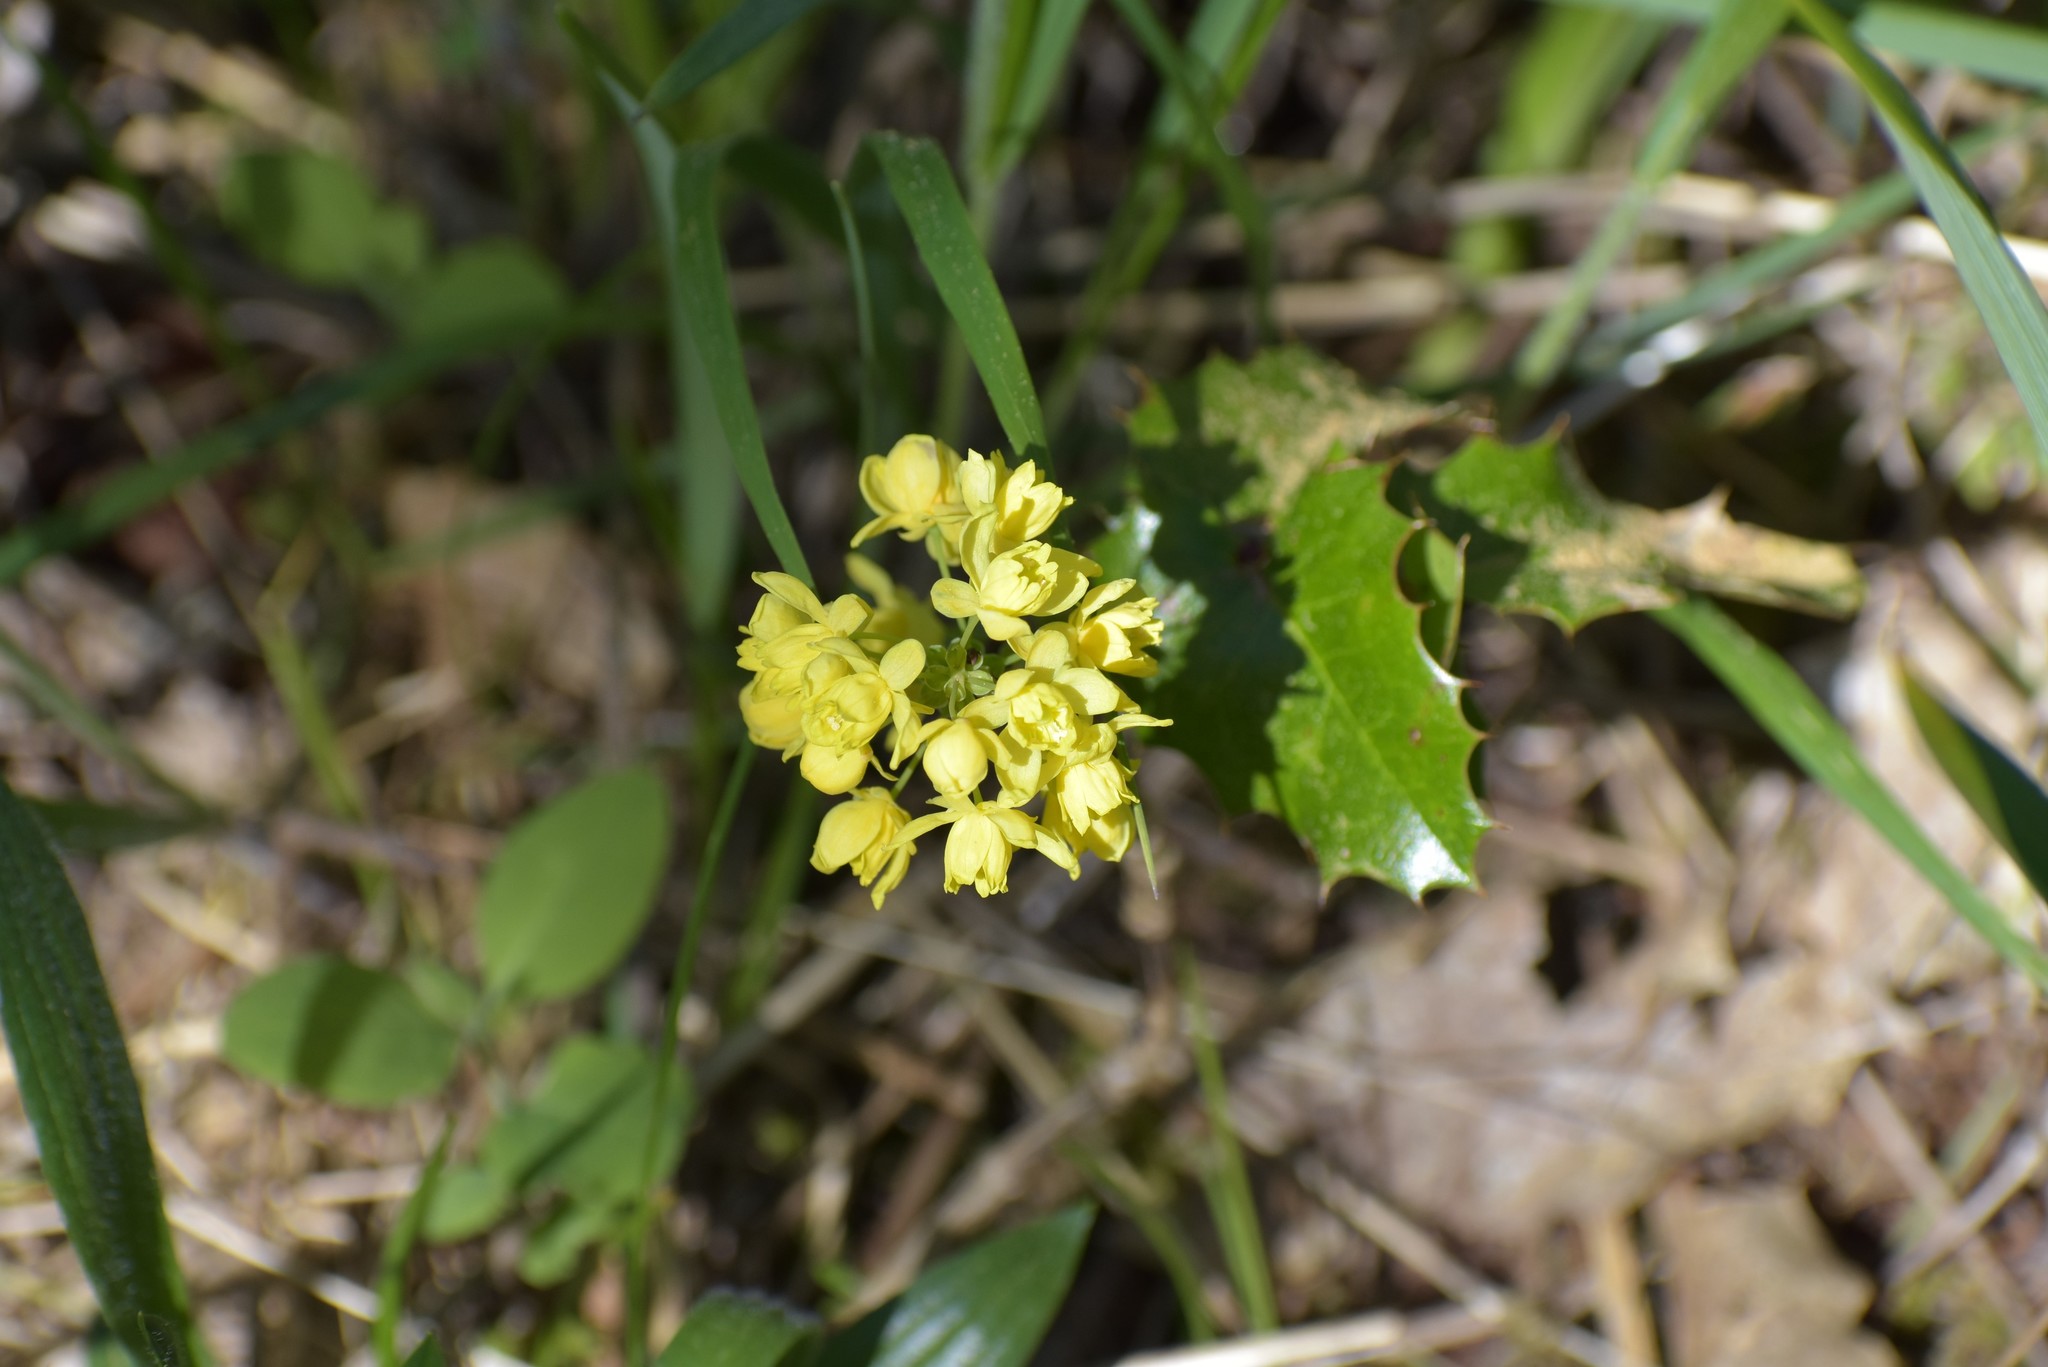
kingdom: Plantae
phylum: Tracheophyta
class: Magnoliopsida
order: Ranunculales
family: Berberidaceae
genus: Mahonia
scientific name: Mahonia aquifolium
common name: Oregon-grape
